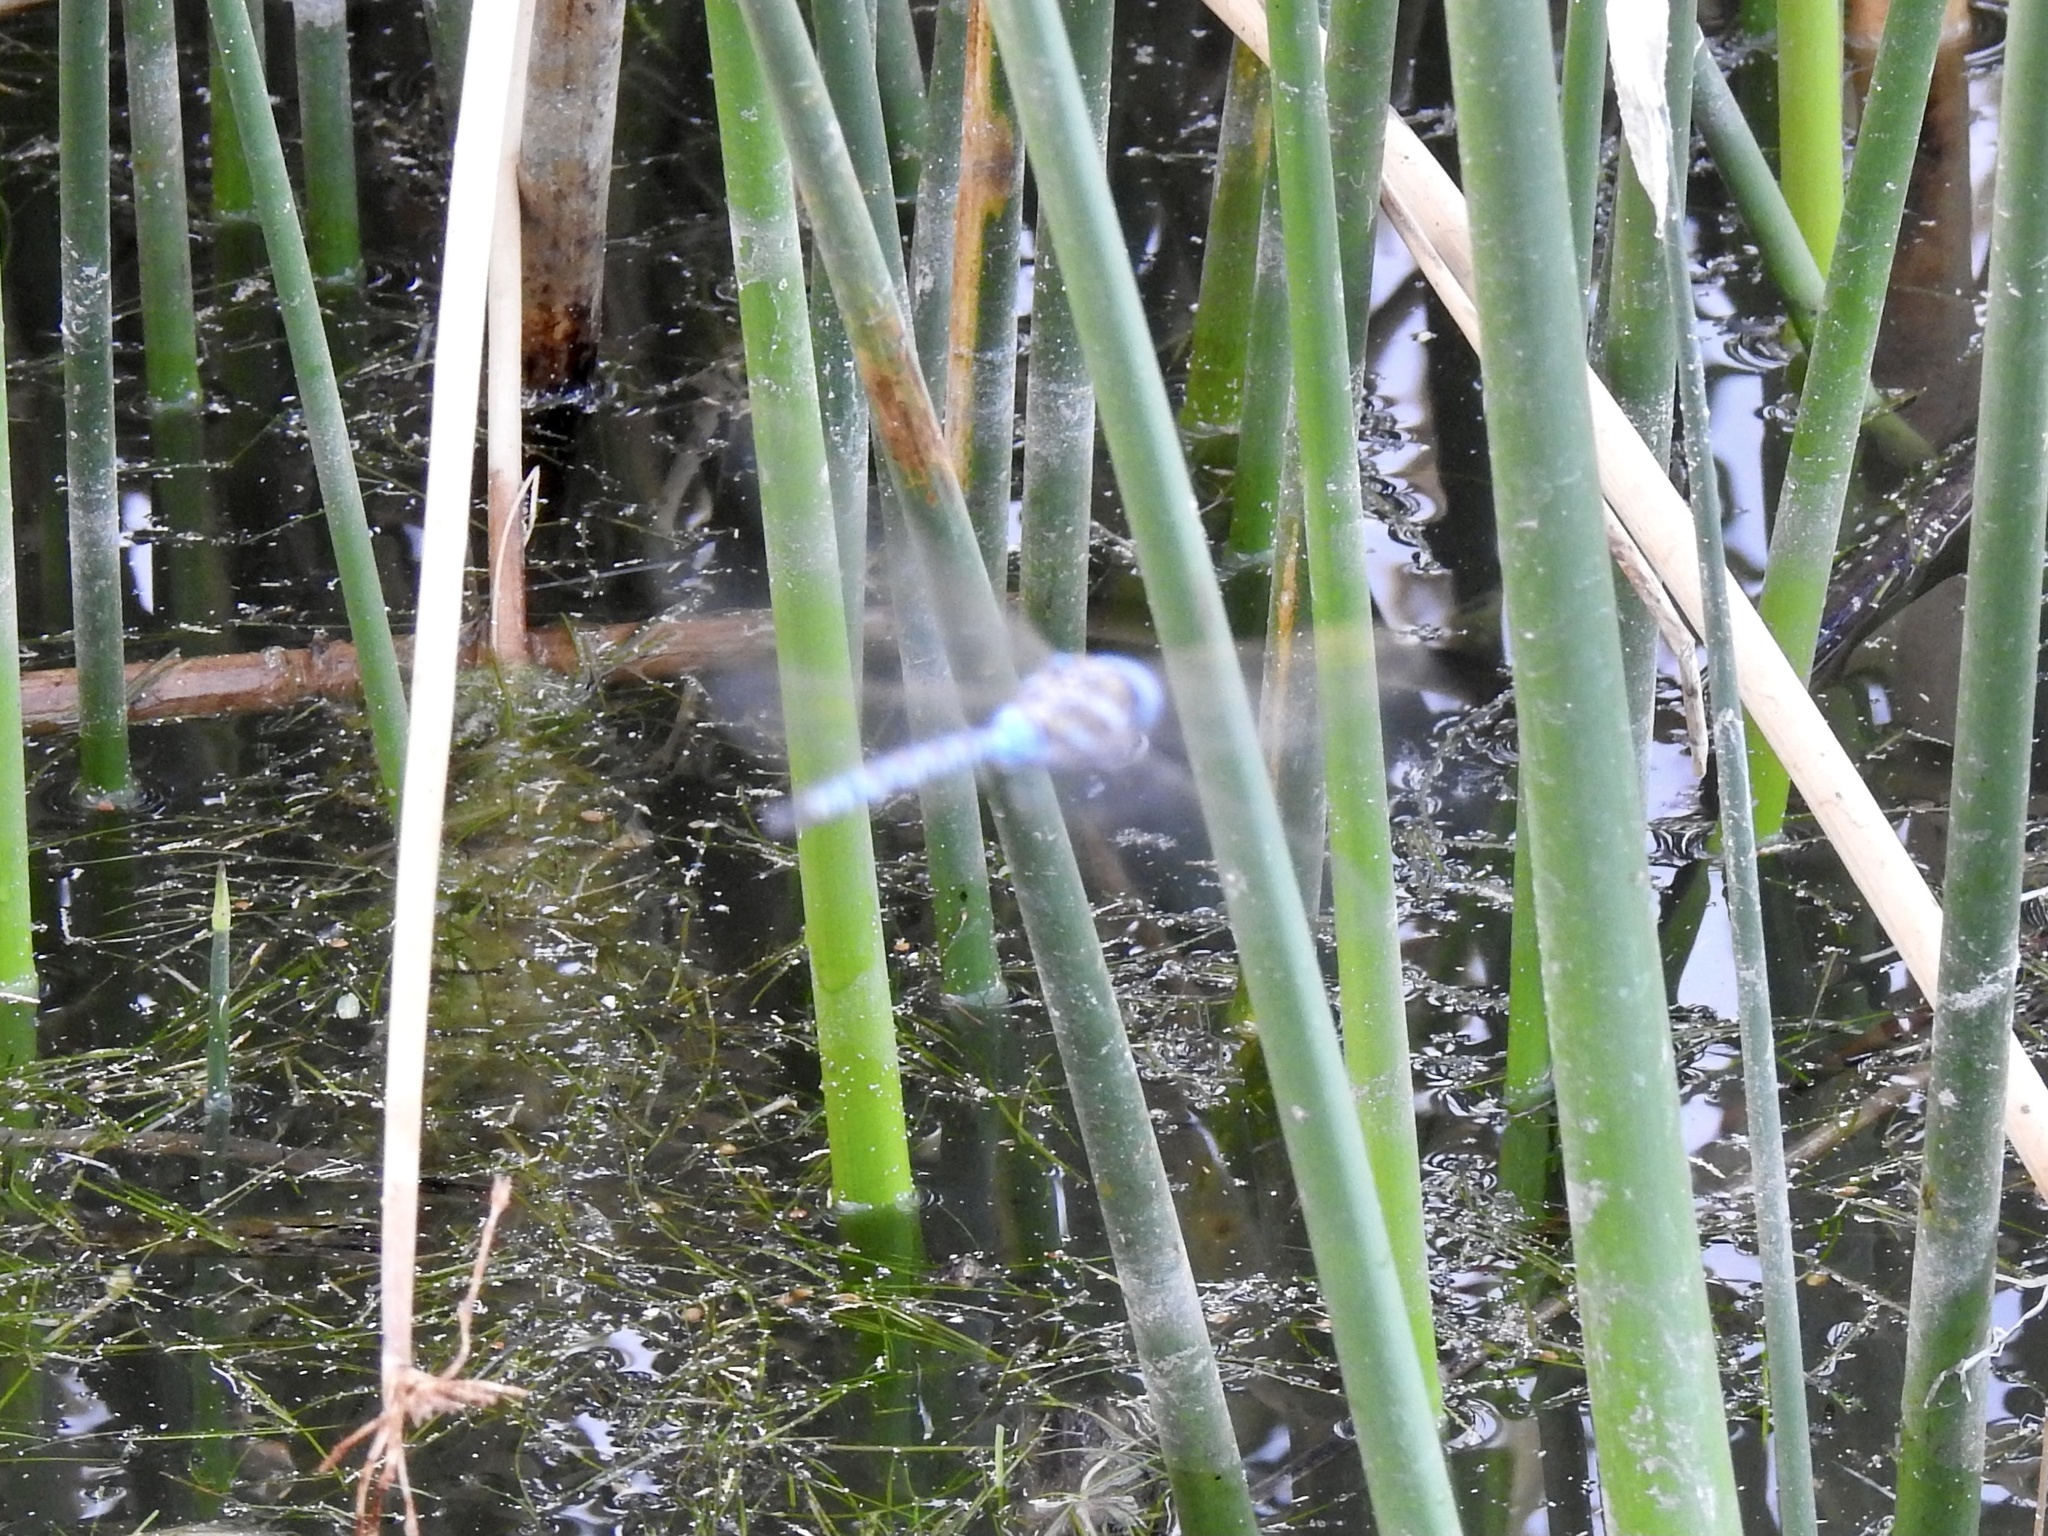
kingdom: Animalia
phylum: Arthropoda
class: Insecta
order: Odonata
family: Libellulidae
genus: Pachydiplax
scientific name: Pachydiplax longipennis
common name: Blue dasher
